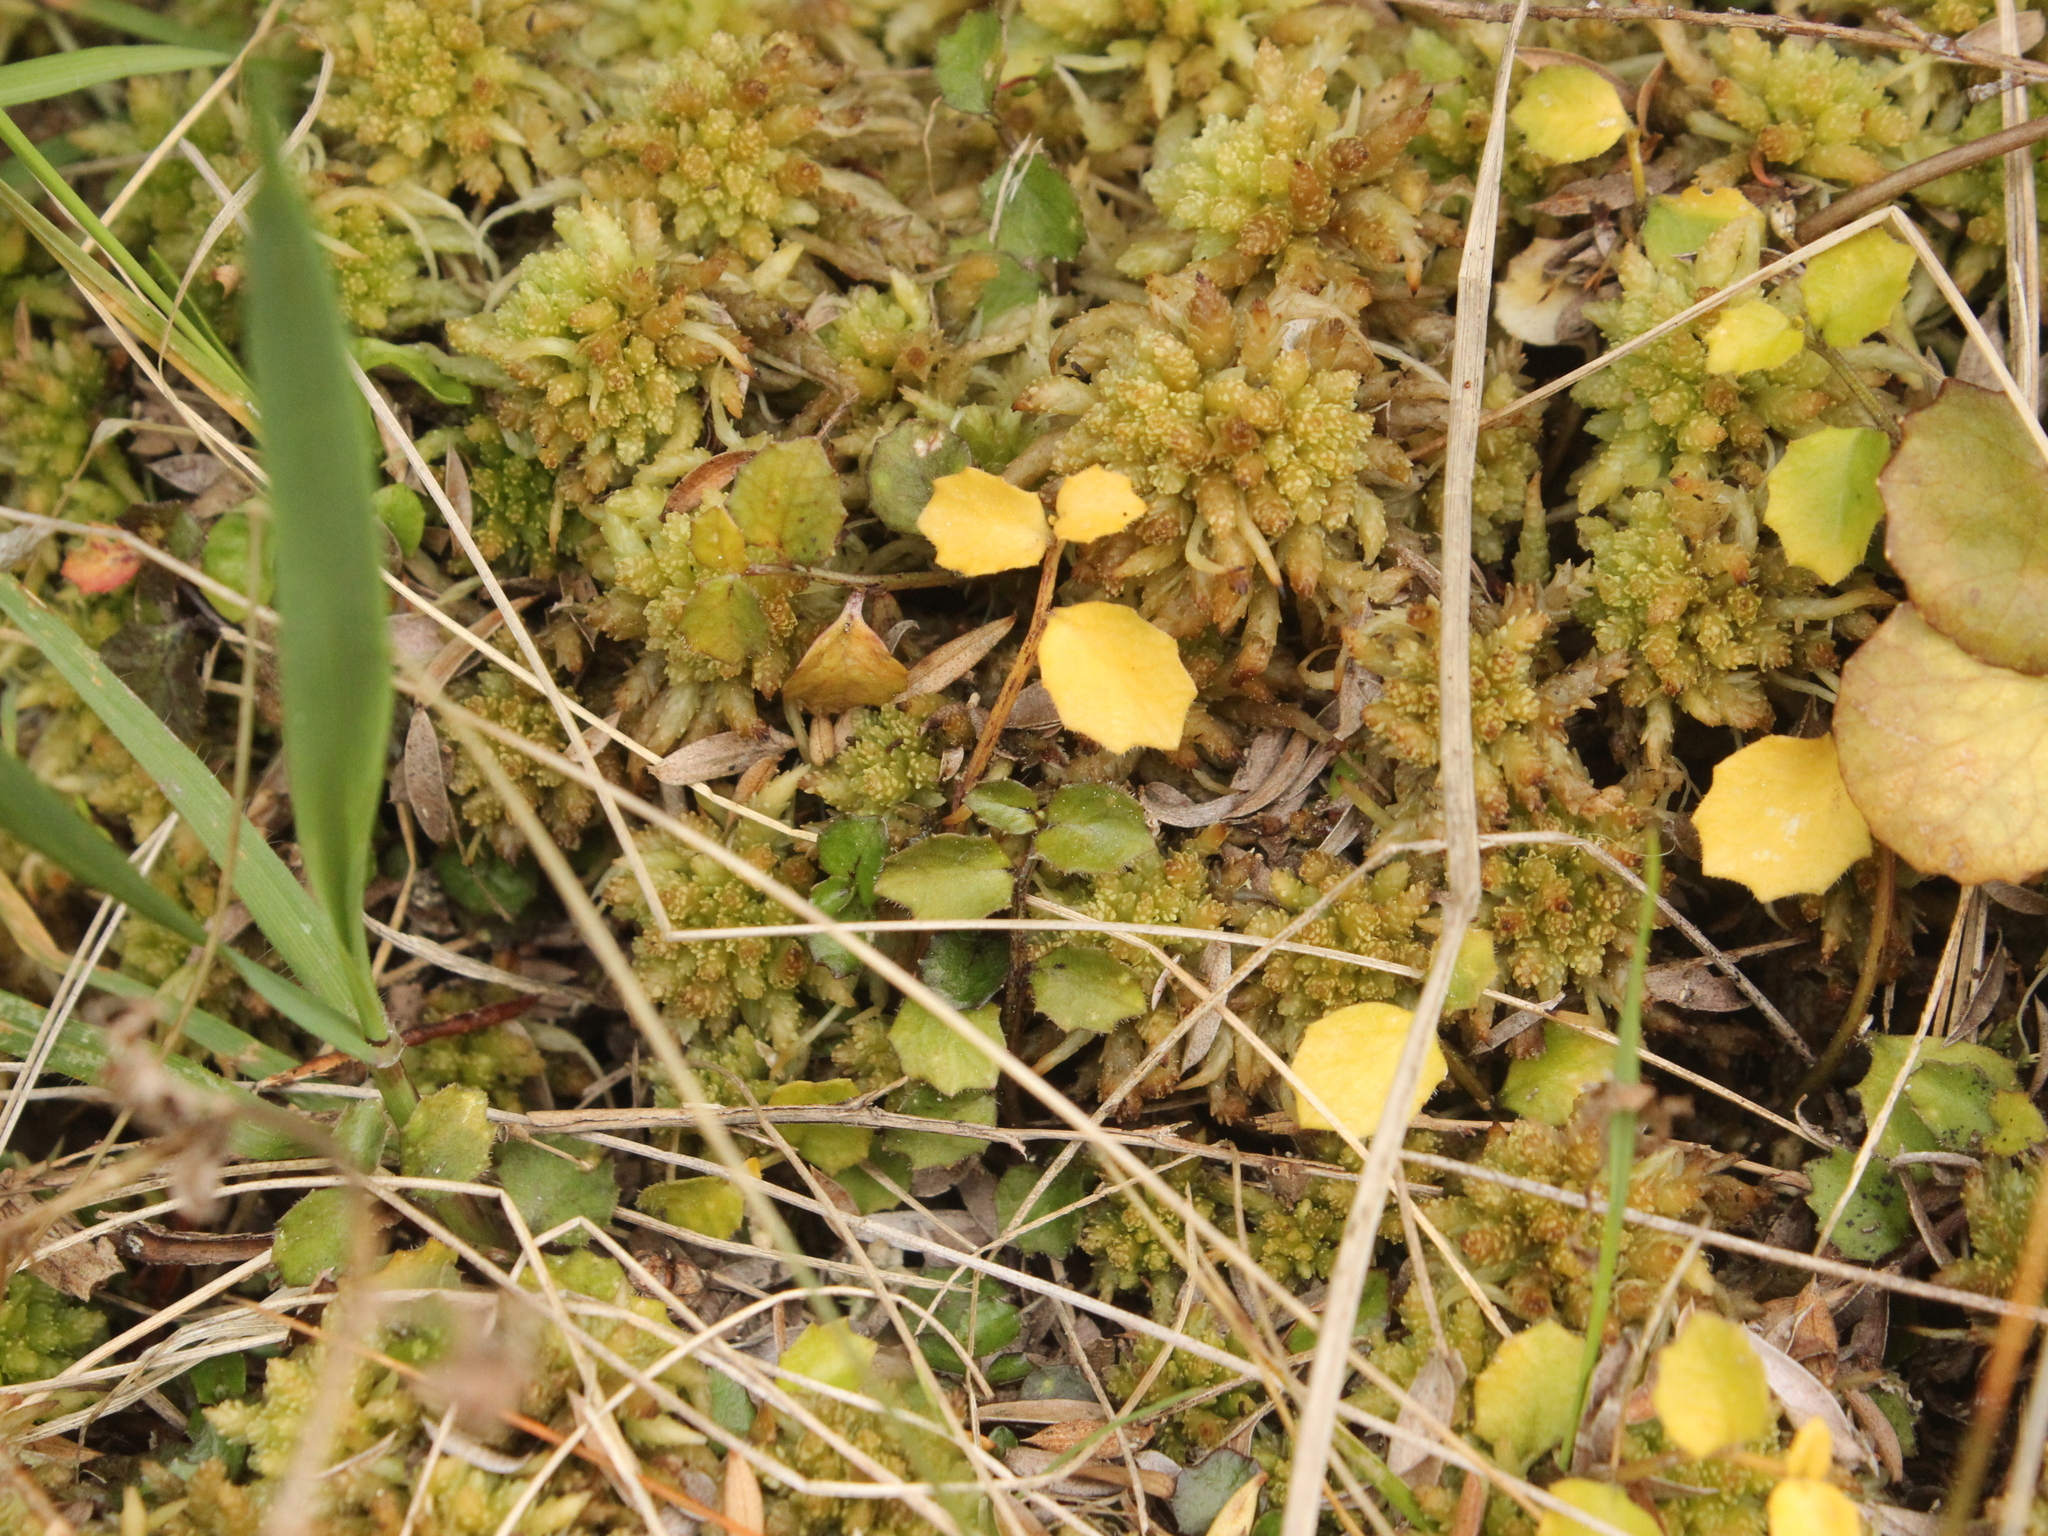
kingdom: Plantae
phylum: Tracheophyta
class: Magnoliopsida
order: Asterales
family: Campanulaceae
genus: Lobelia
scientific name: Lobelia angulata
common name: Lawn lobelia
